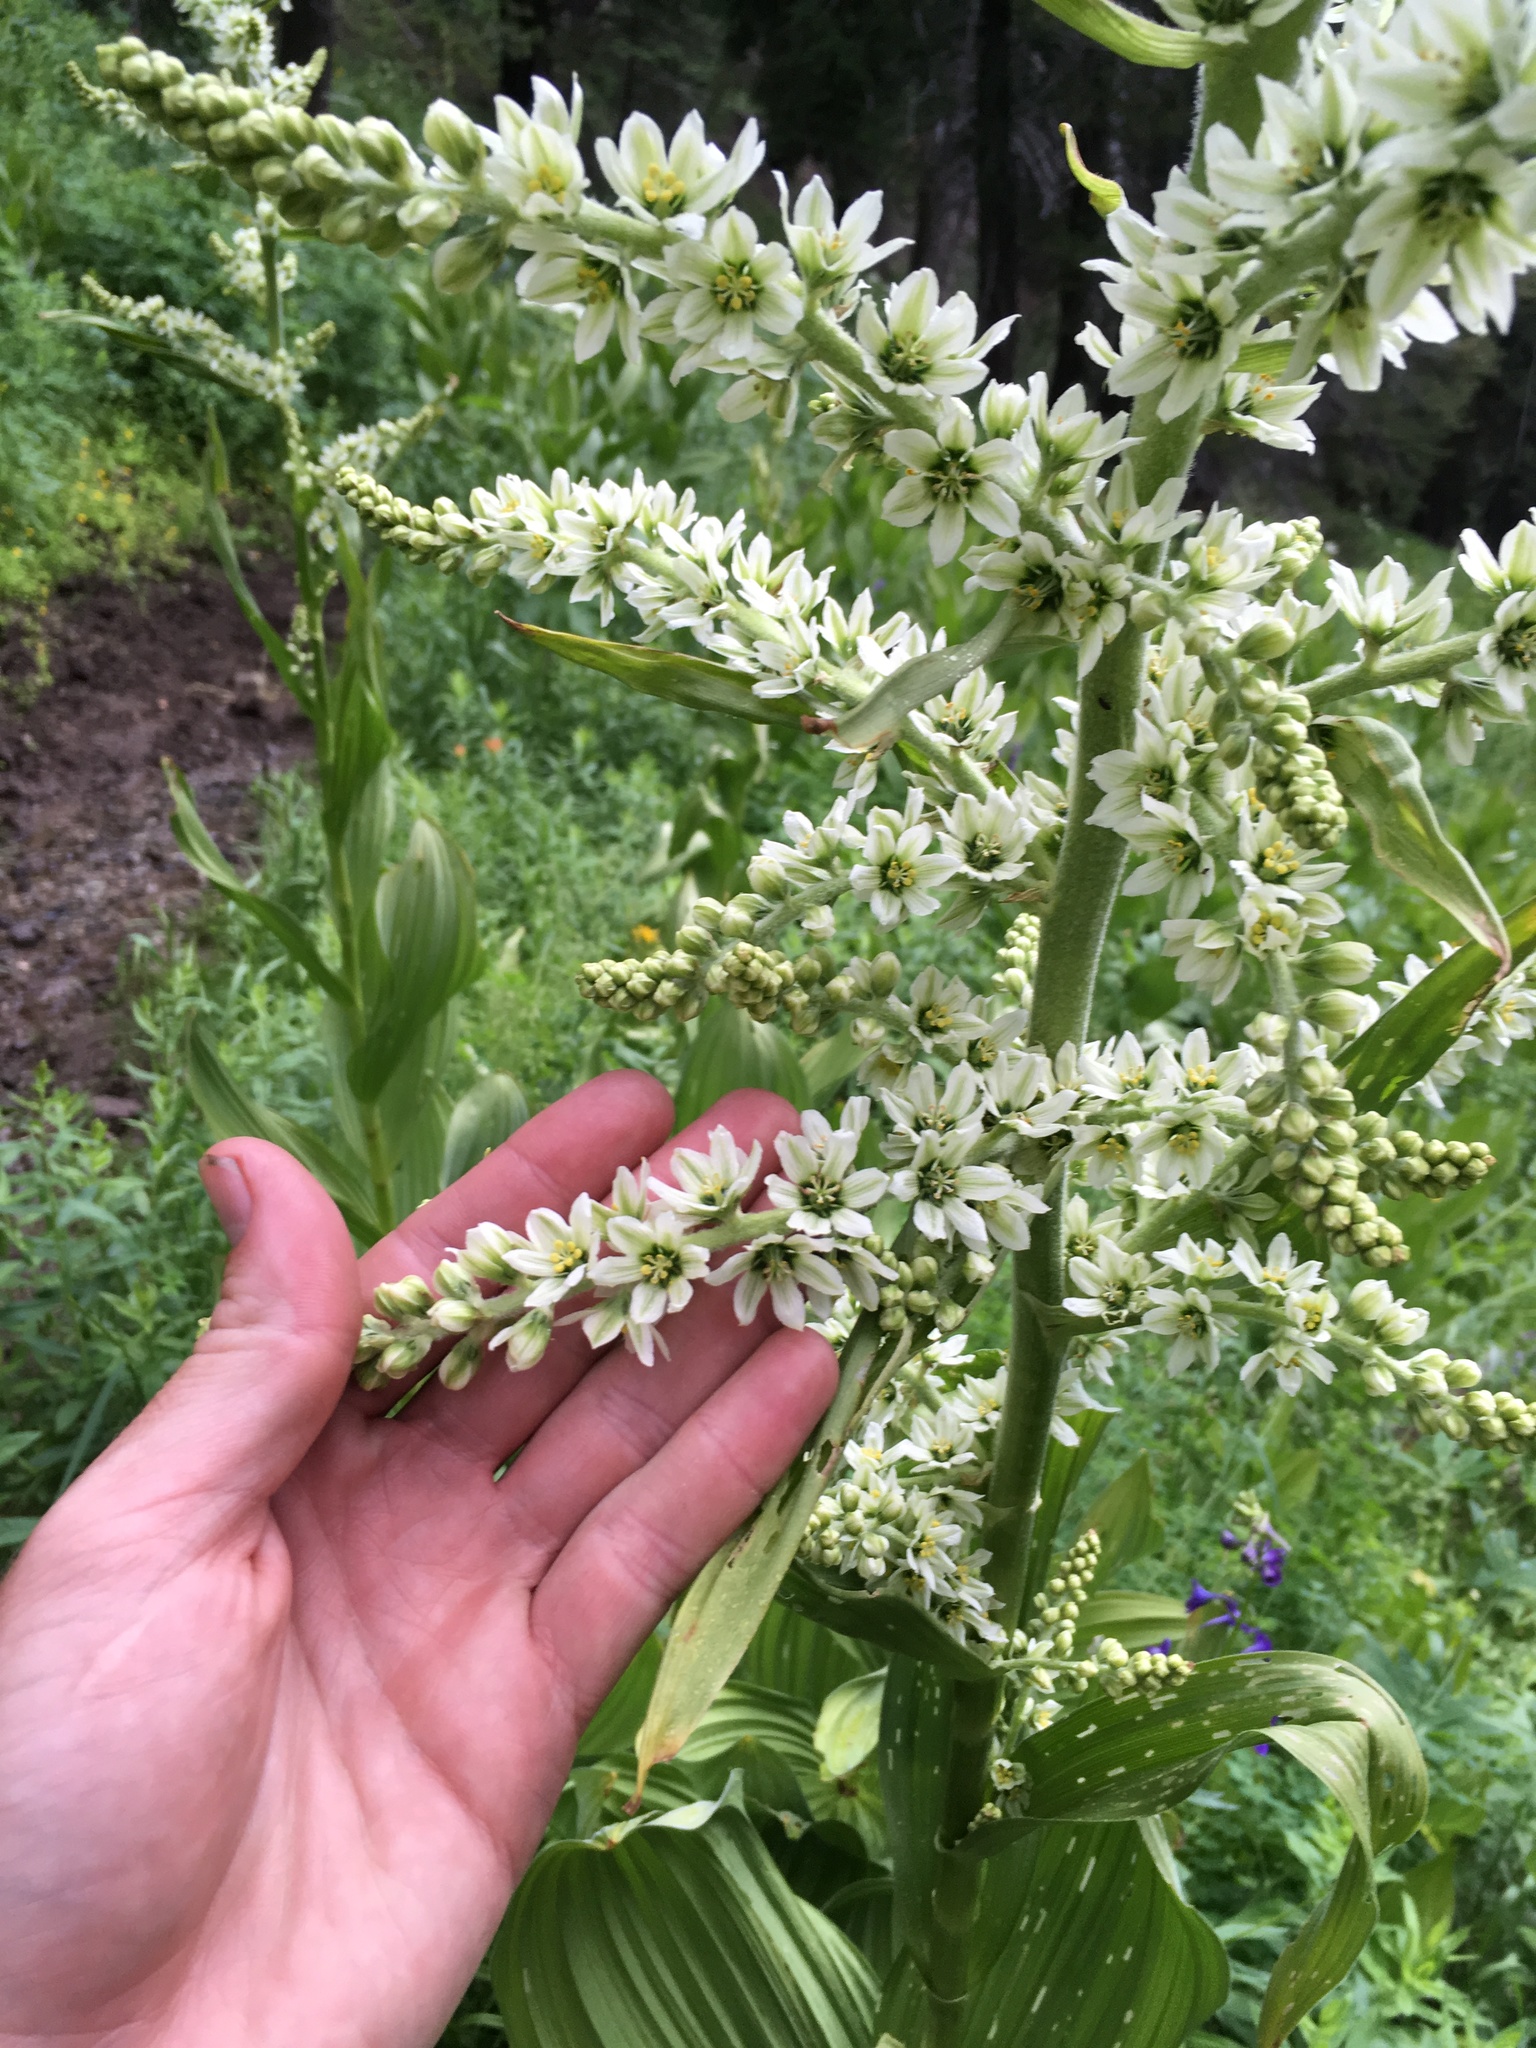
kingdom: Plantae
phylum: Tracheophyta
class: Liliopsida
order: Liliales
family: Melanthiaceae
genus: Veratrum
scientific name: Veratrum californicum
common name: California veratrum
